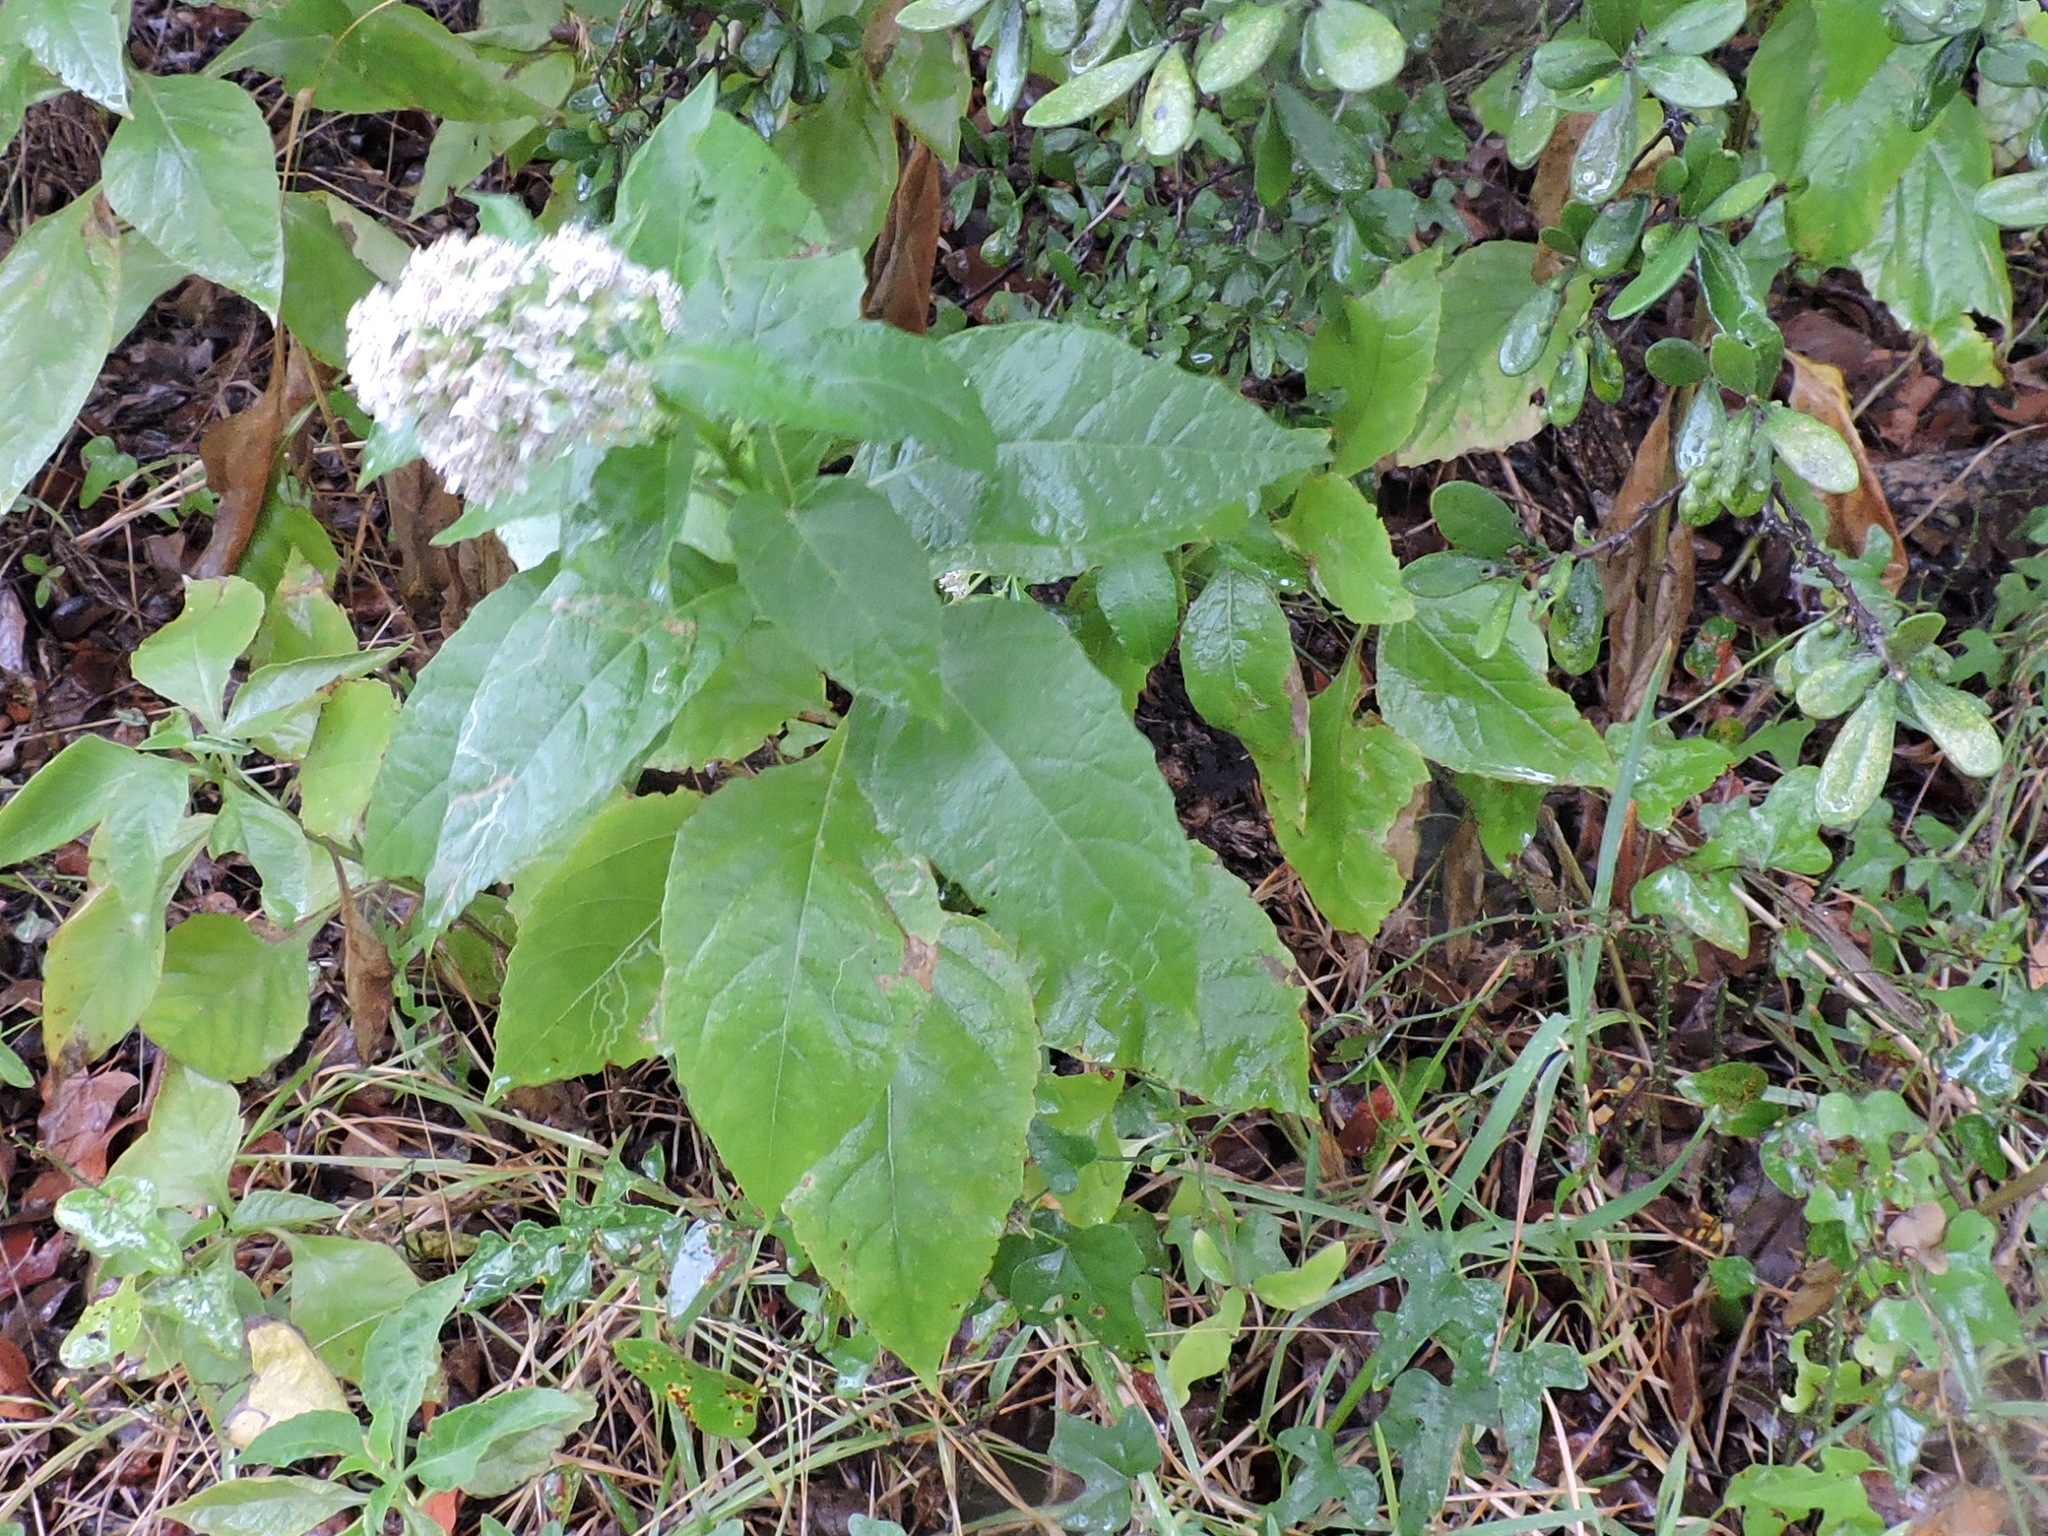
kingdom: Plantae
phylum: Tracheophyta
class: Magnoliopsida
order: Asterales
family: Asteraceae
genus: Verbesina
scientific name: Verbesina virginica
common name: Frostweed
